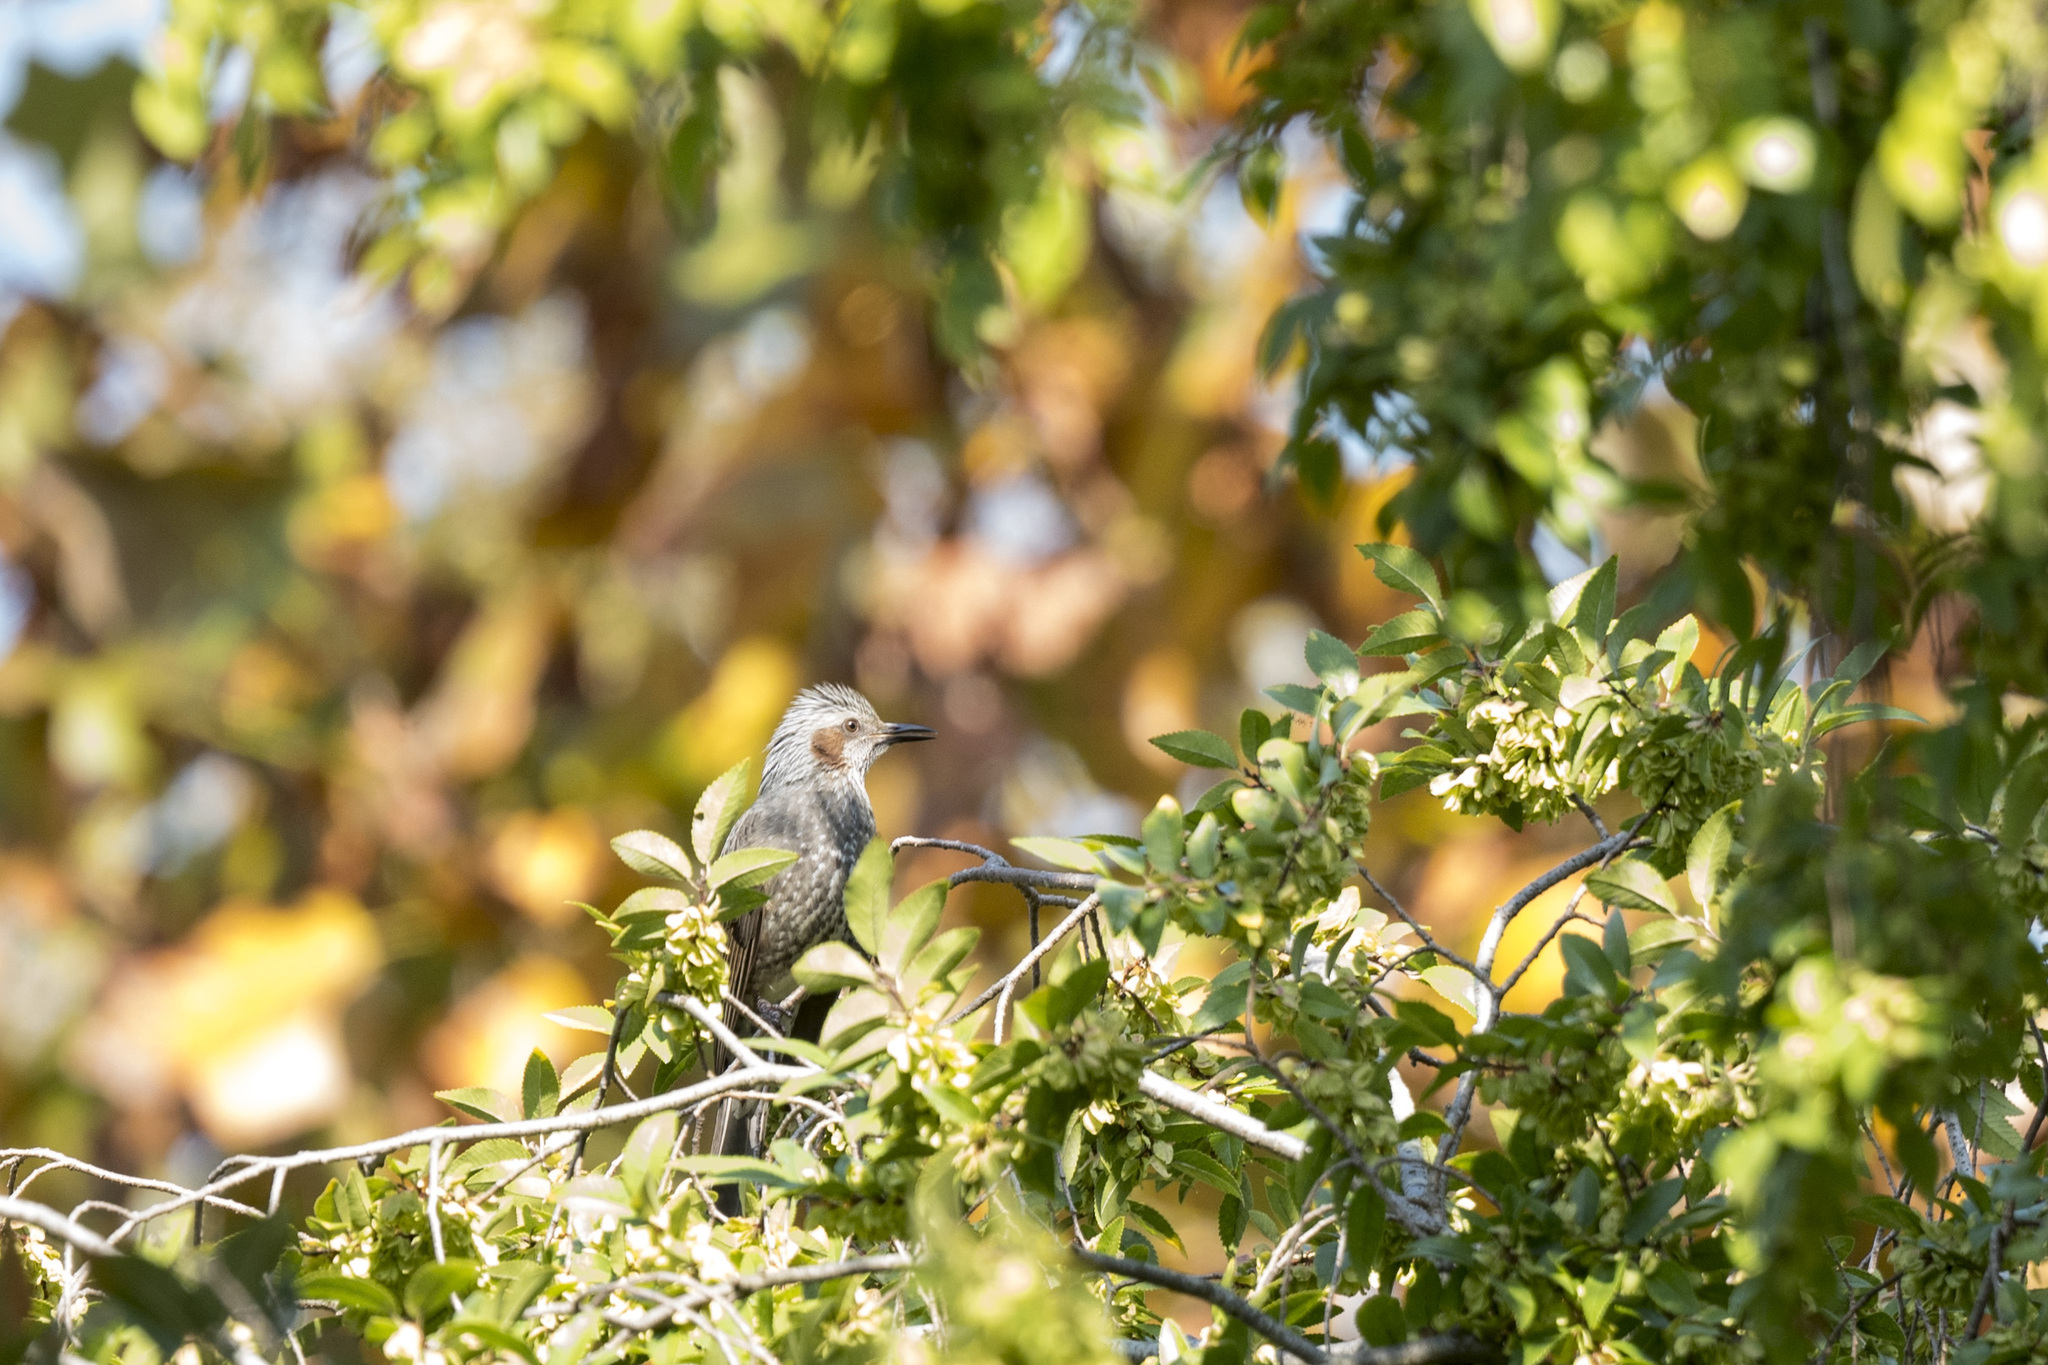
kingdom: Animalia
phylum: Chordata
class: Aves
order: Passeriformes
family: Pycnonotidae
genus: Hypsipetes
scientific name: Hypsipetes amaurotis
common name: Brown-eared bulbul
